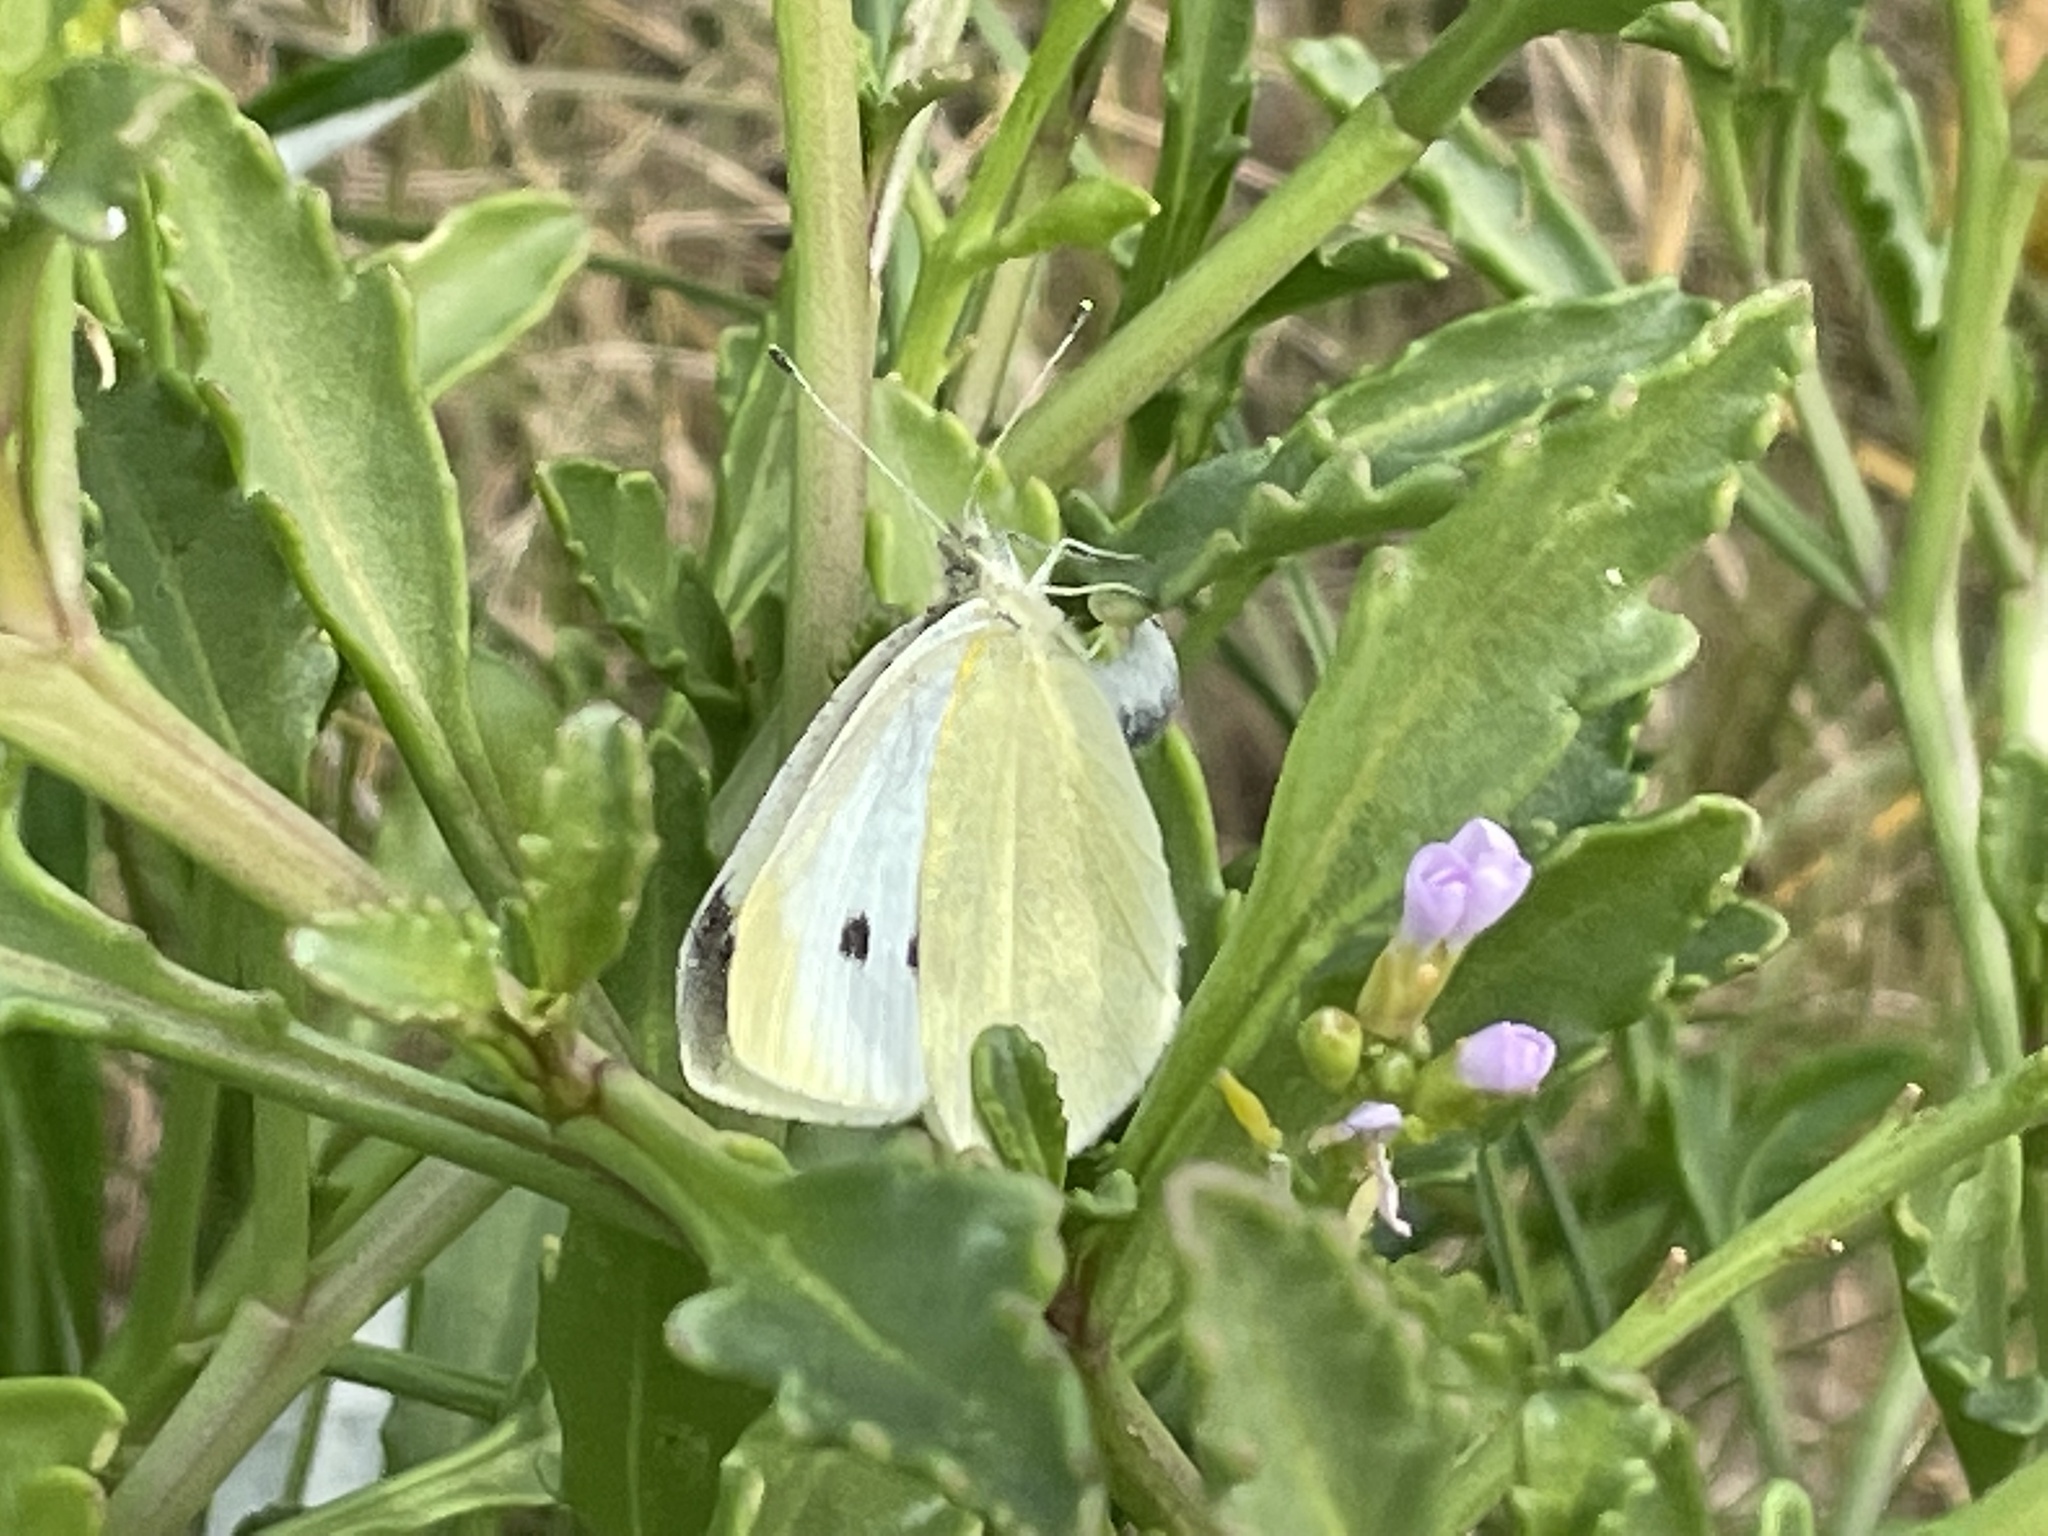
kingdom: Animalia
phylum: Arthropoda
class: Insecta
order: Lepidoptera
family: Pieridae
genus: Pieris
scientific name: Pieris rapae
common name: Small white
